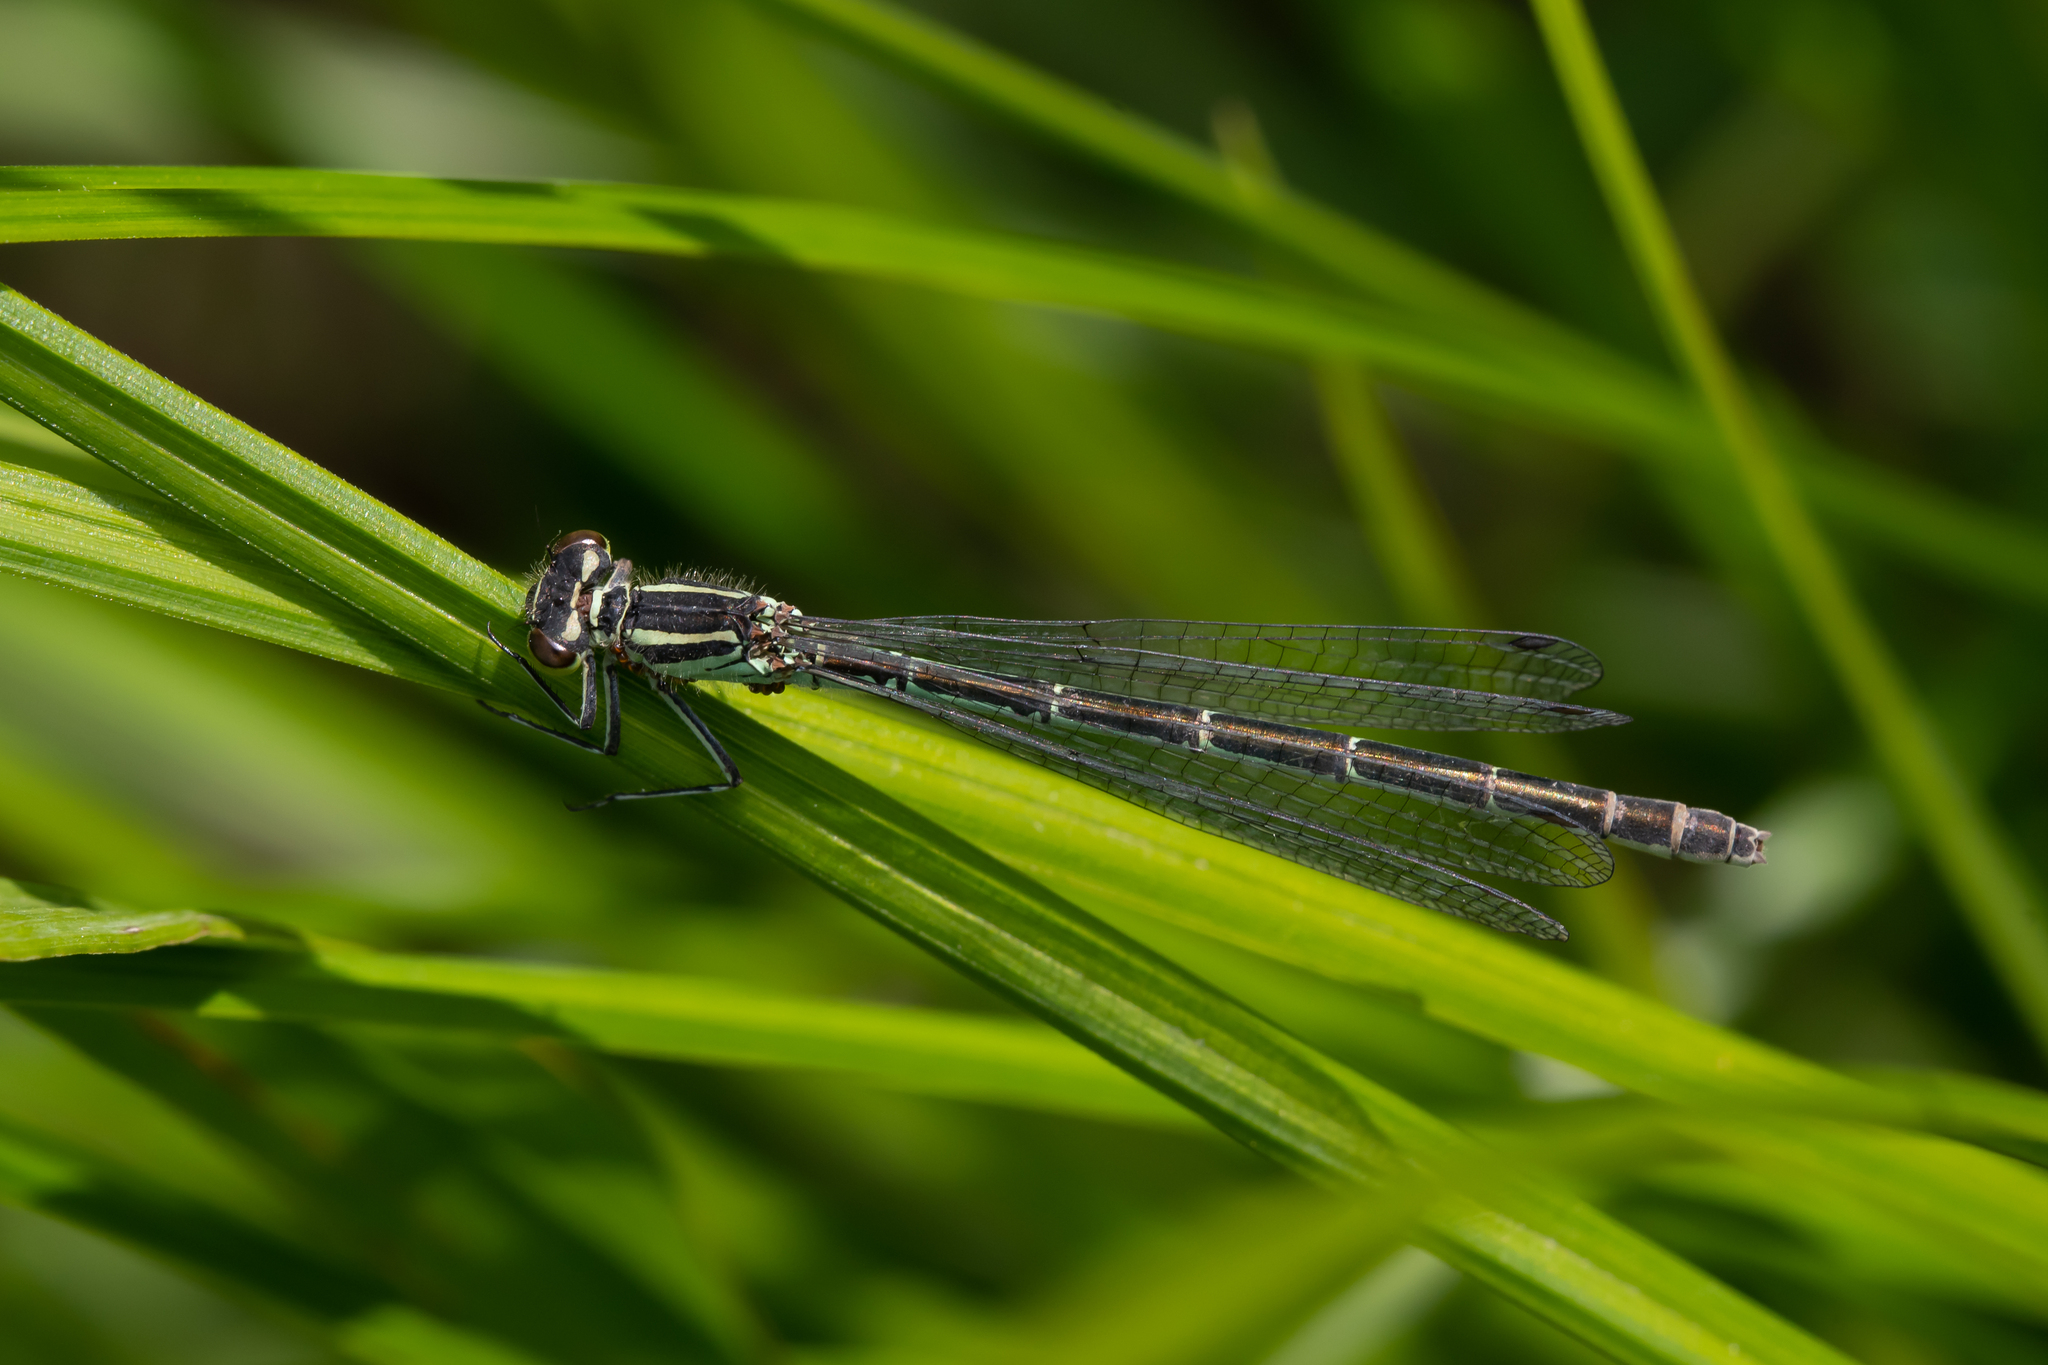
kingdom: Animalia
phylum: Arthropoda
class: Insecta
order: Odonata
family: Coenagrionidae
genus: Coenagrion
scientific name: Coenagrion hastulatum
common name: Spearhead bluet
